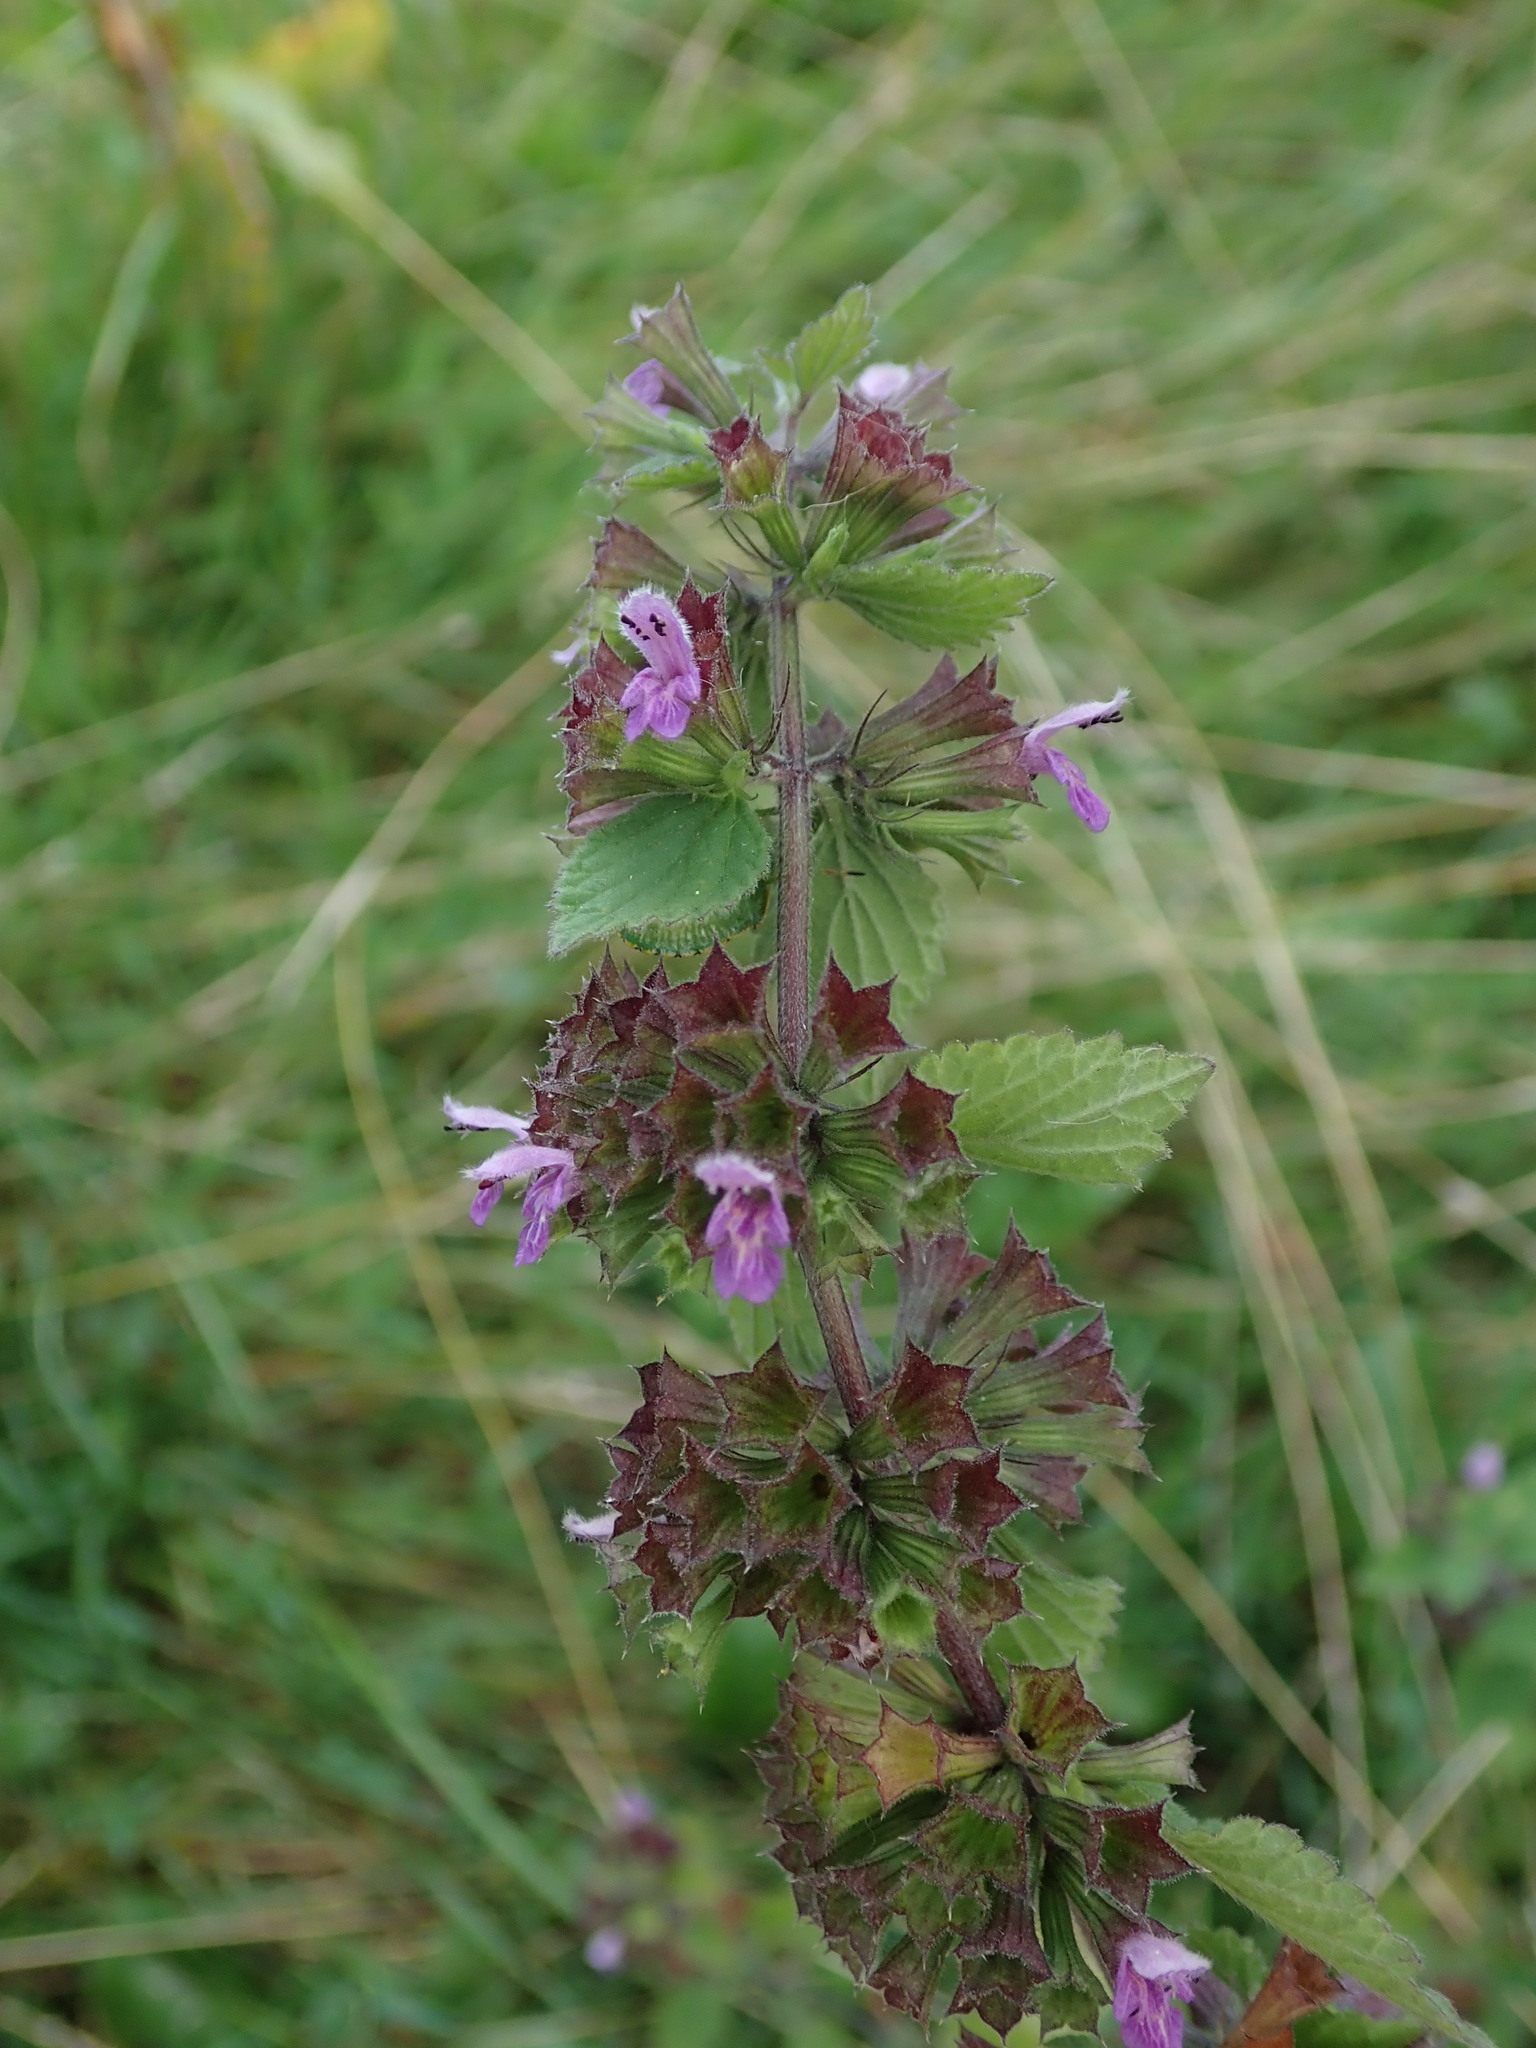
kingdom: Plantae
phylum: Tracheophyta
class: Magnoliopsida
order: Lamiales
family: Lamiaceae
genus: Ballota
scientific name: Ballota nigra
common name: Black horehound
